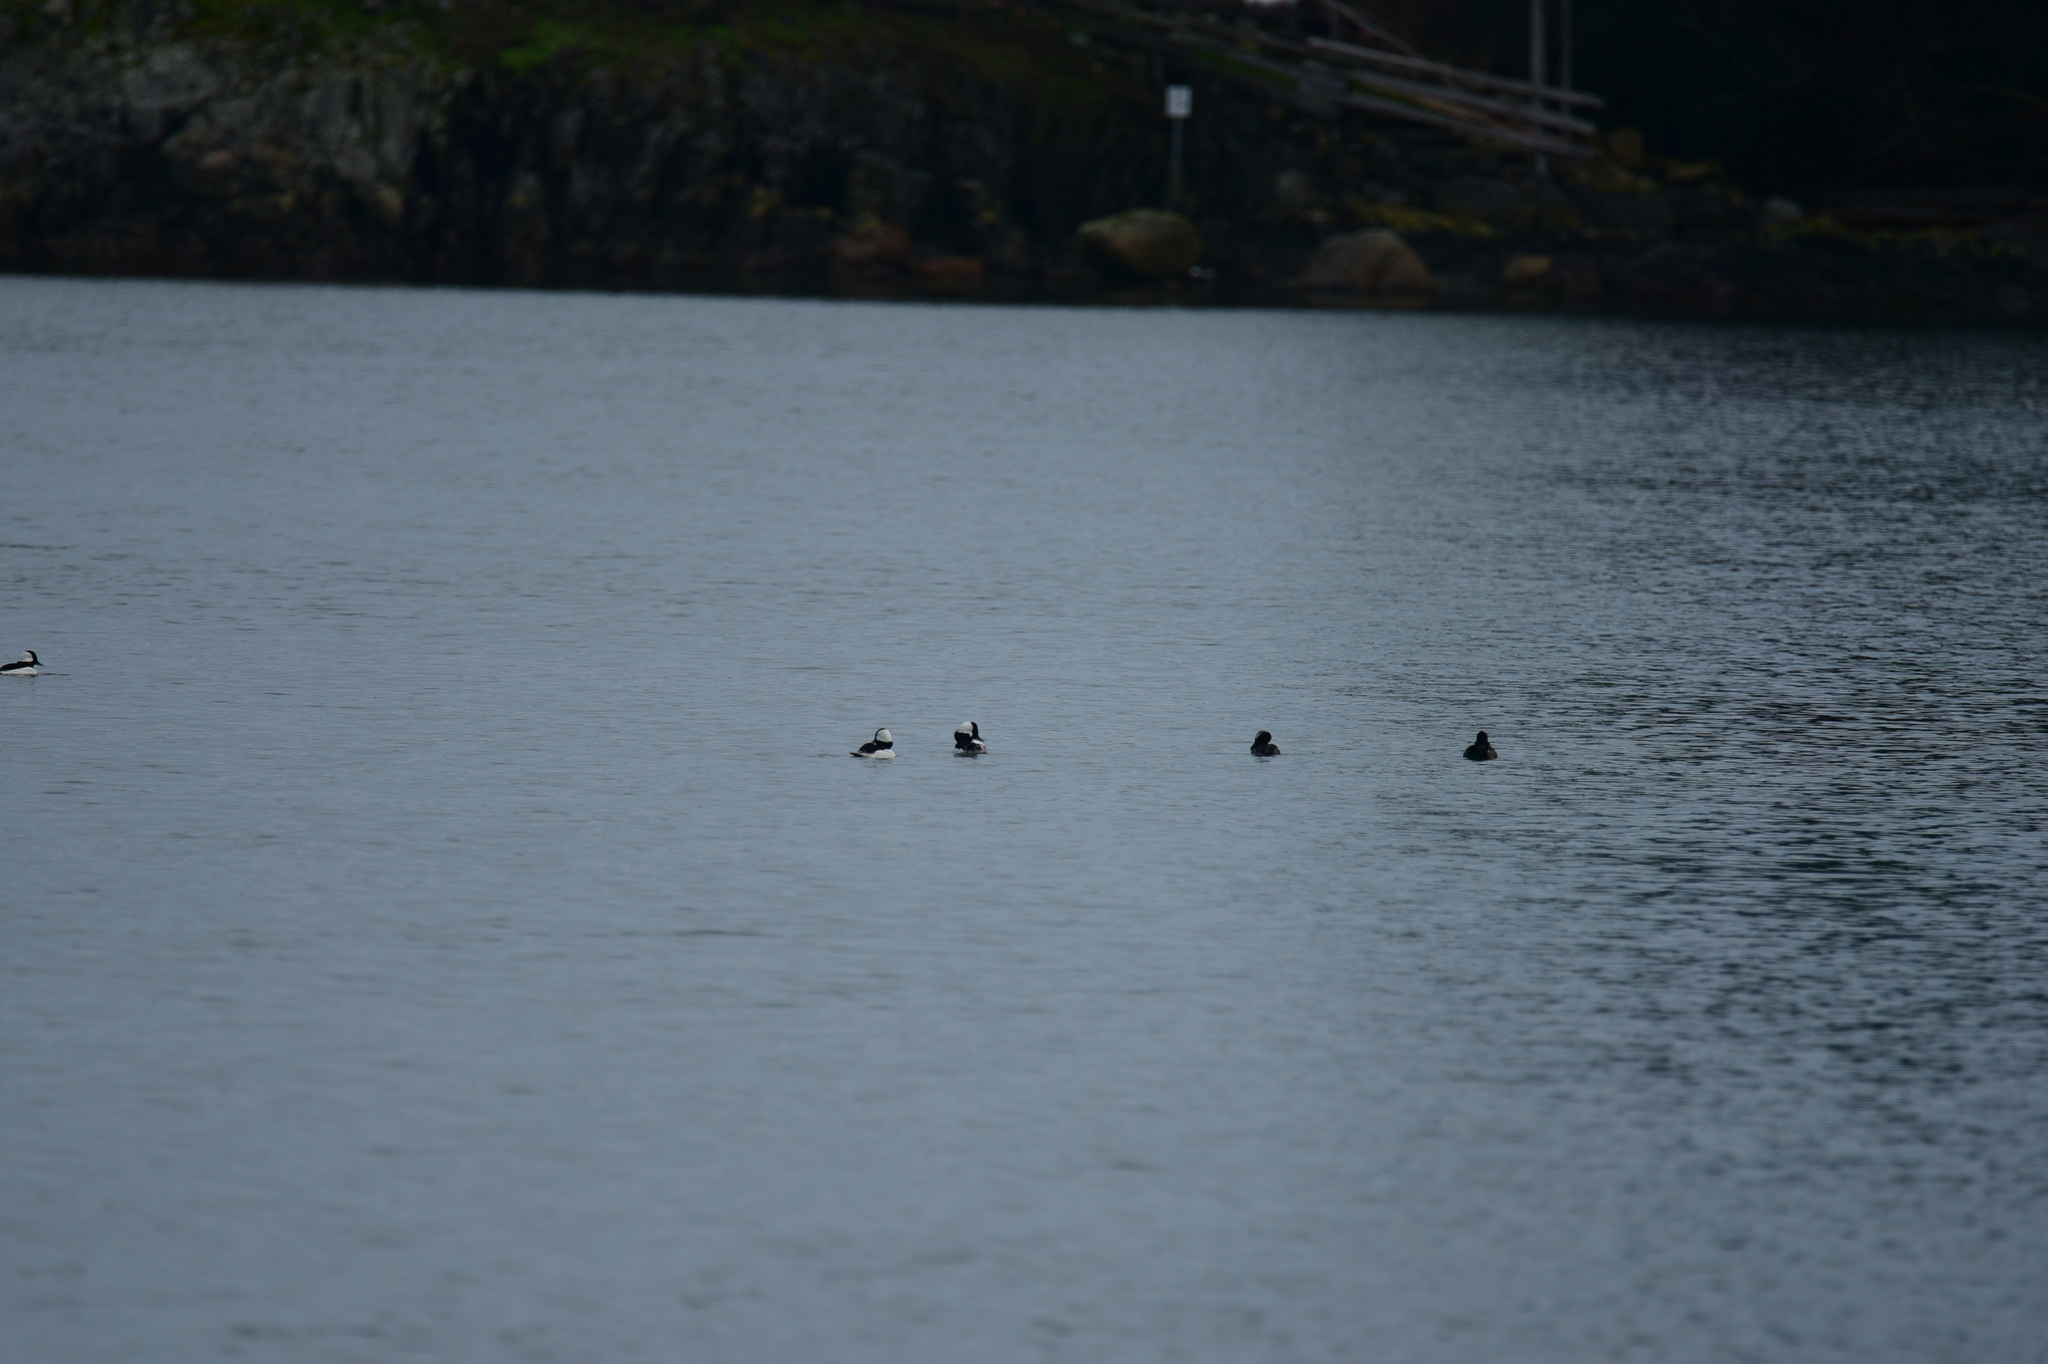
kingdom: Animalia
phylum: Chordata
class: Aves
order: Anseriformes
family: Anatidae
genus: Bucephala
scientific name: Bucephala albeola
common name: Bufflehead
